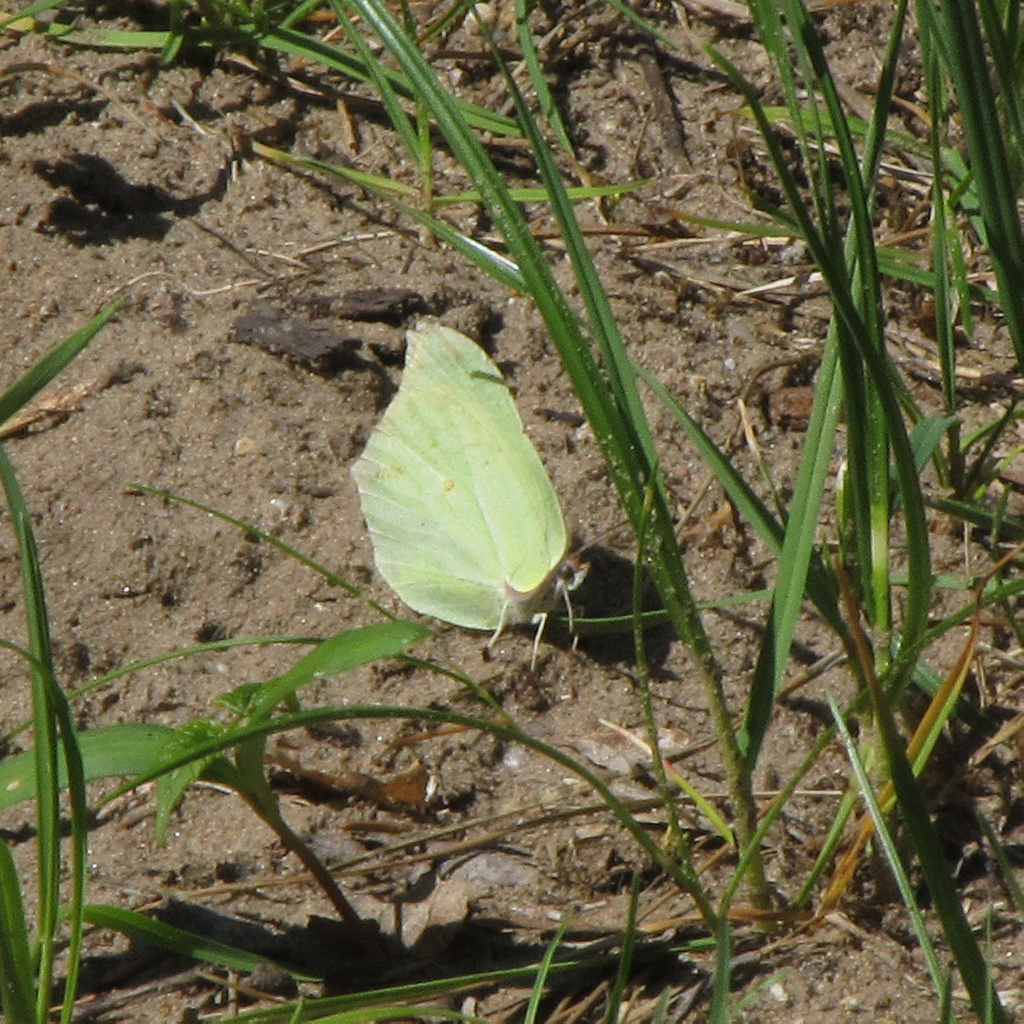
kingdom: Animalia
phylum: Arthropoda
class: Insecta
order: Lepidoptera
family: Pieridae
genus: Gonepteryx
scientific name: Gonepteryx rhamni
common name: Brimstone
